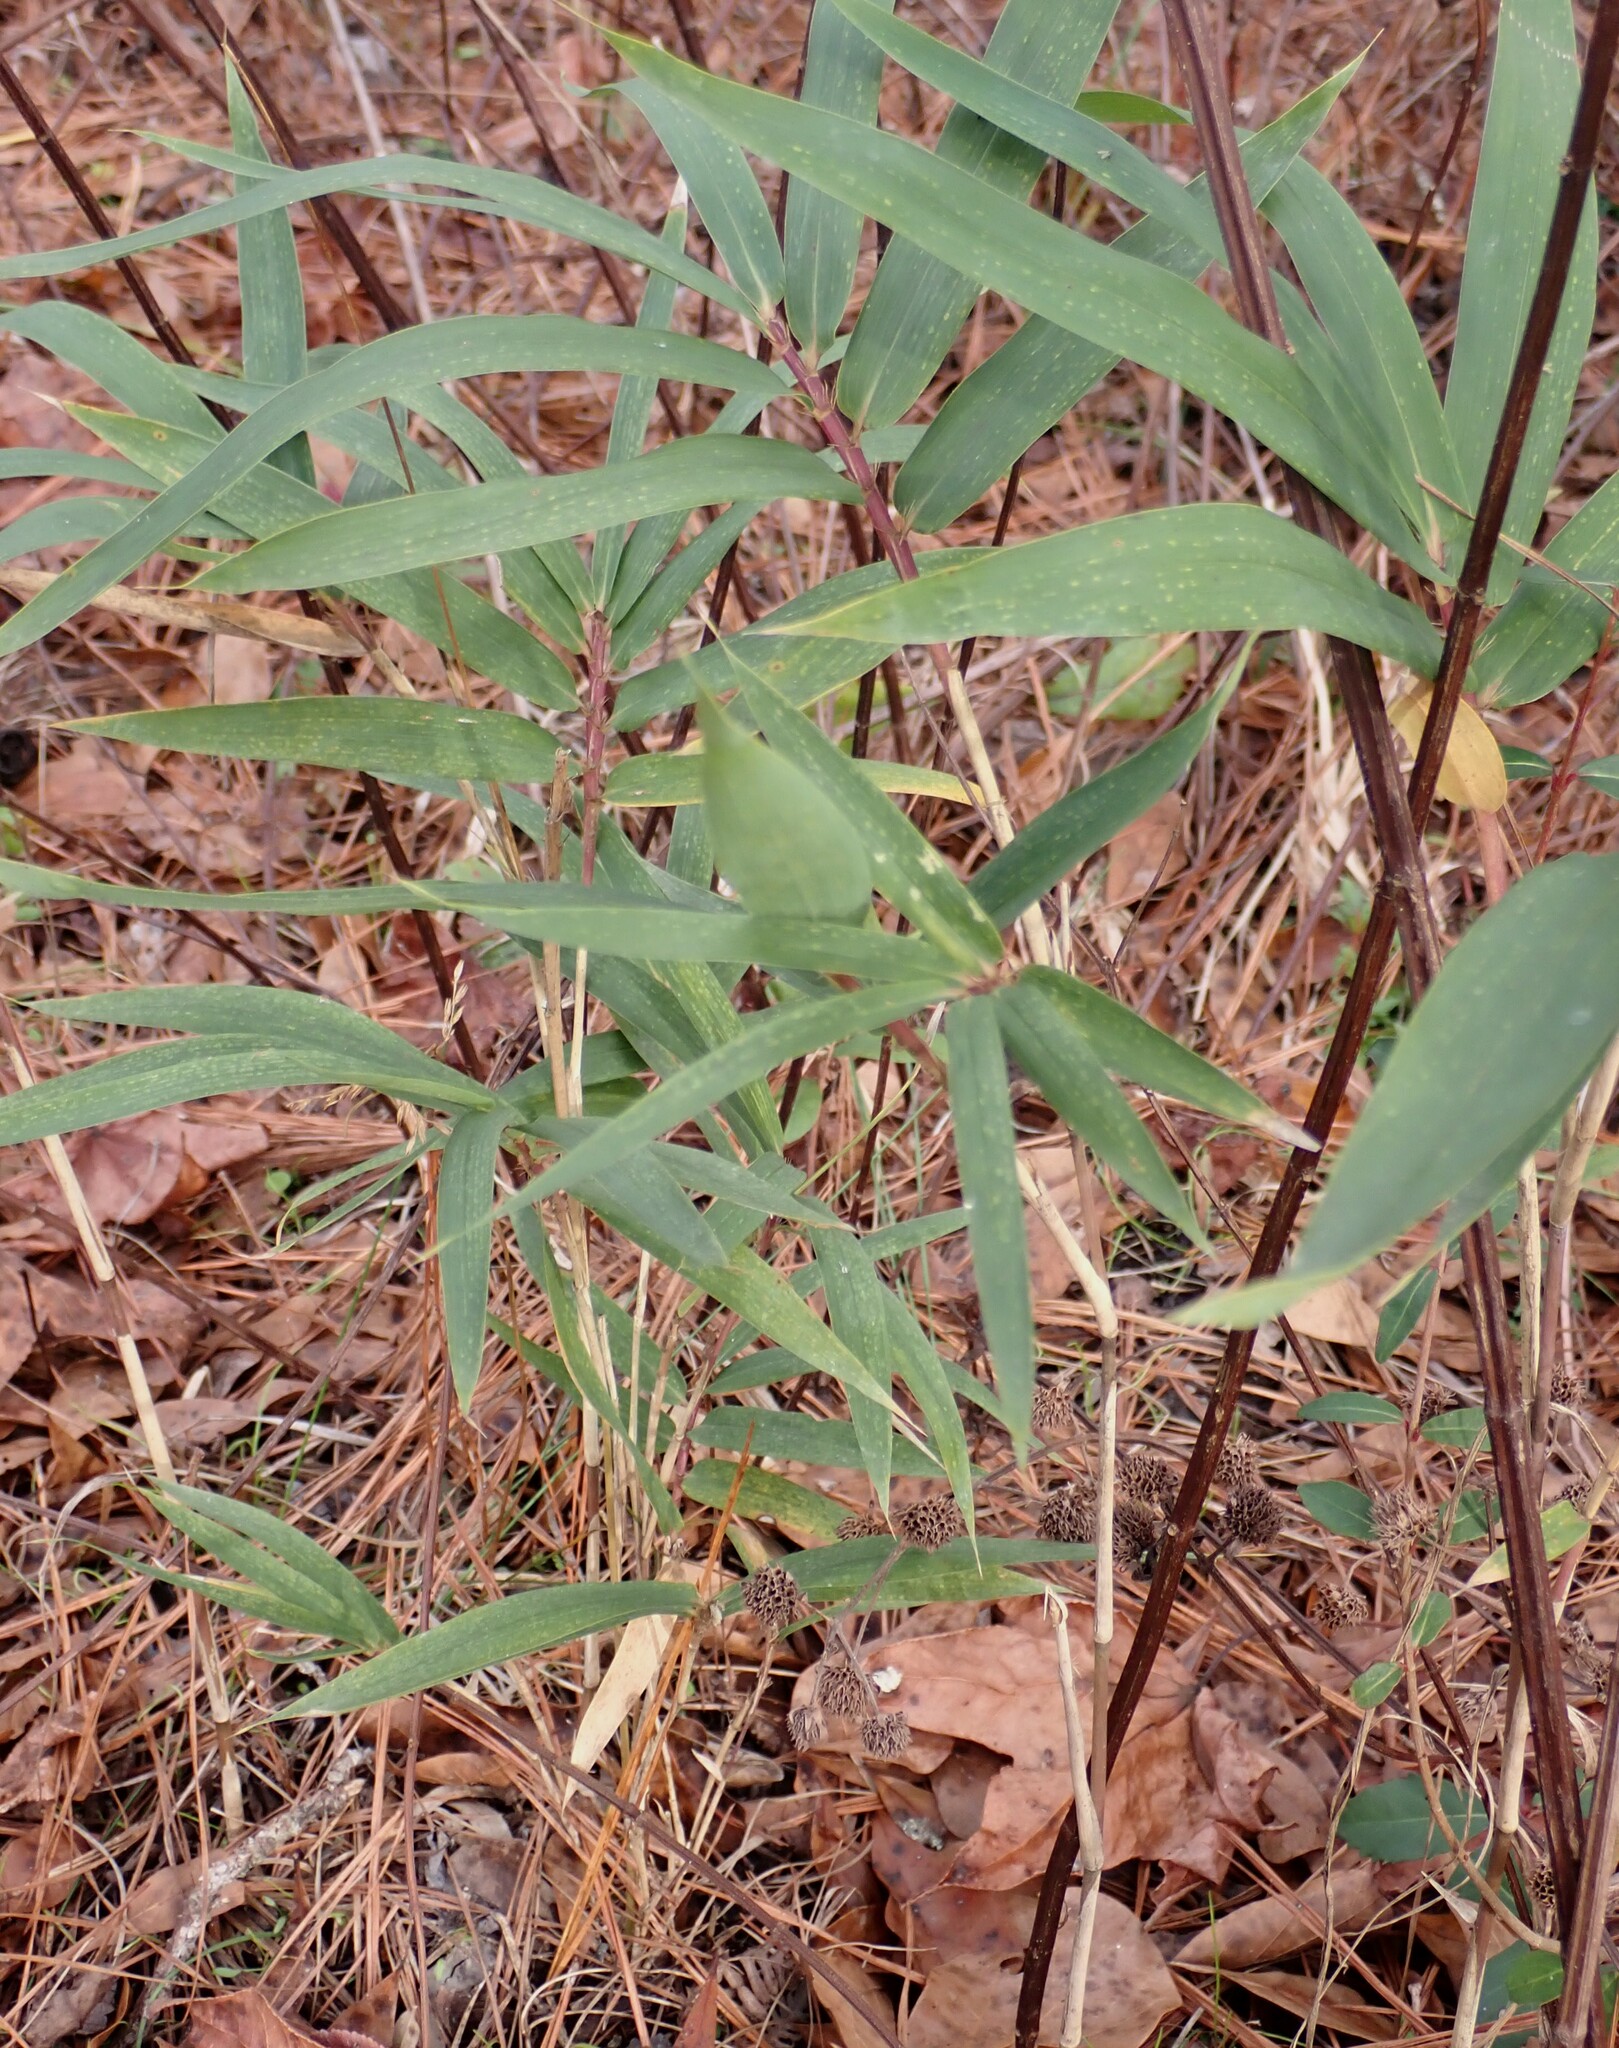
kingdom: Plantae
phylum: Tracheophyta
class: Liliopsida
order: Poales
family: Poaceae
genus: Arundinaria
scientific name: Arundinaria tecta
